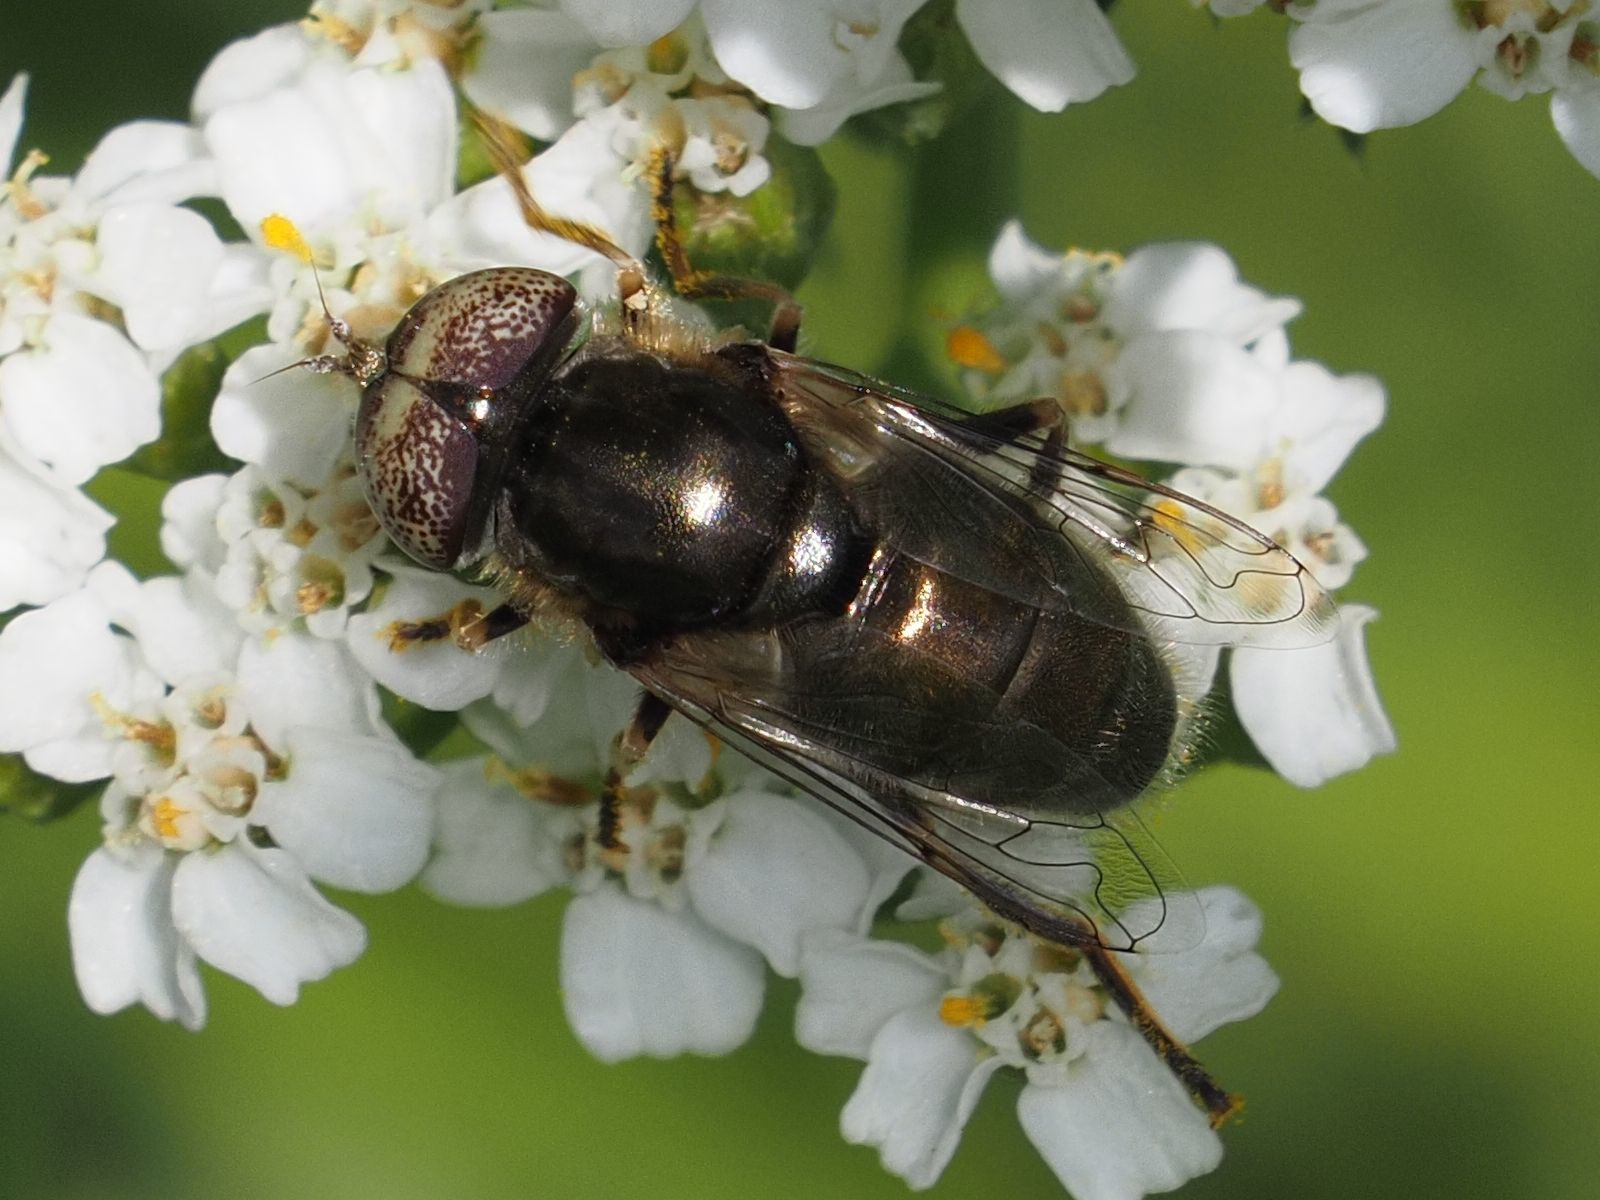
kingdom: Animalia
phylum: Arthropoda
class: Insecta
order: Diptera
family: Syrphidae
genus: Eristalinus
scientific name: Eristalinus aeneus
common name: Syrphid fly
